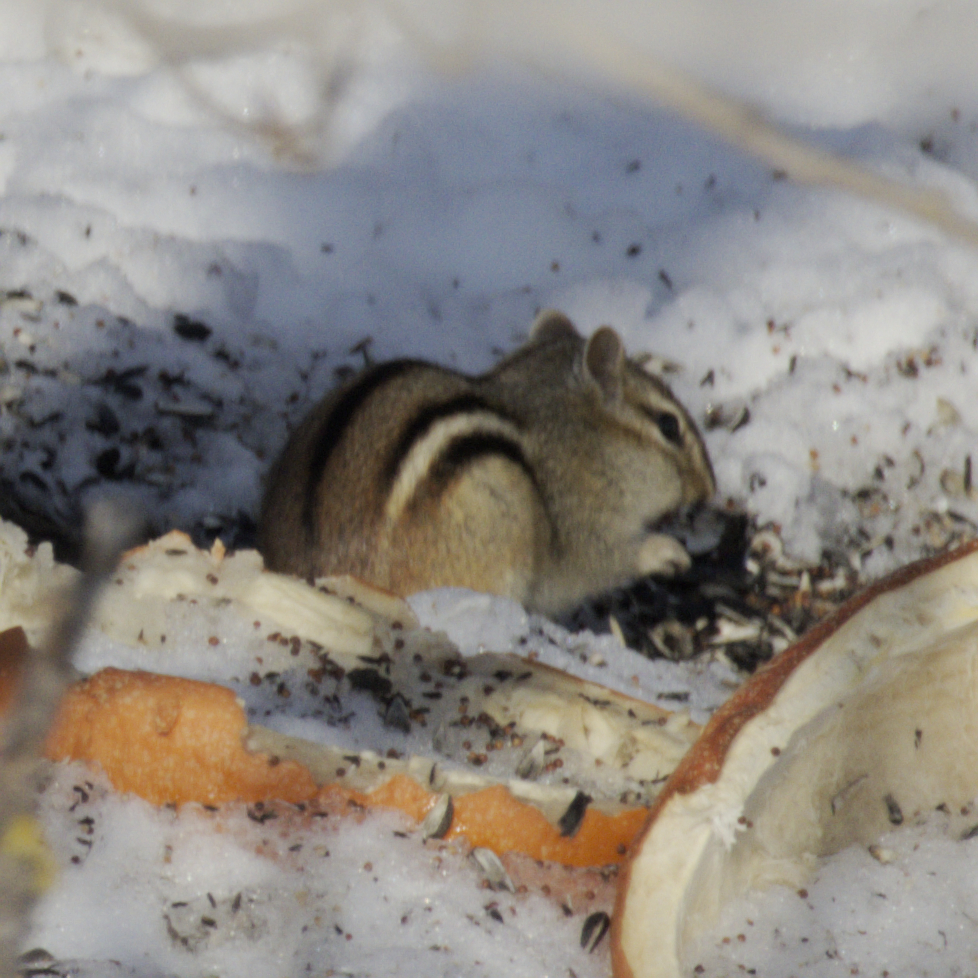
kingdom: Animalia
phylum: Chordata
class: Mammalia
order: Rodentia
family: Sciuridae
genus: Tamias
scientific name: Tamias striatus
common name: Eastern chipmunk
